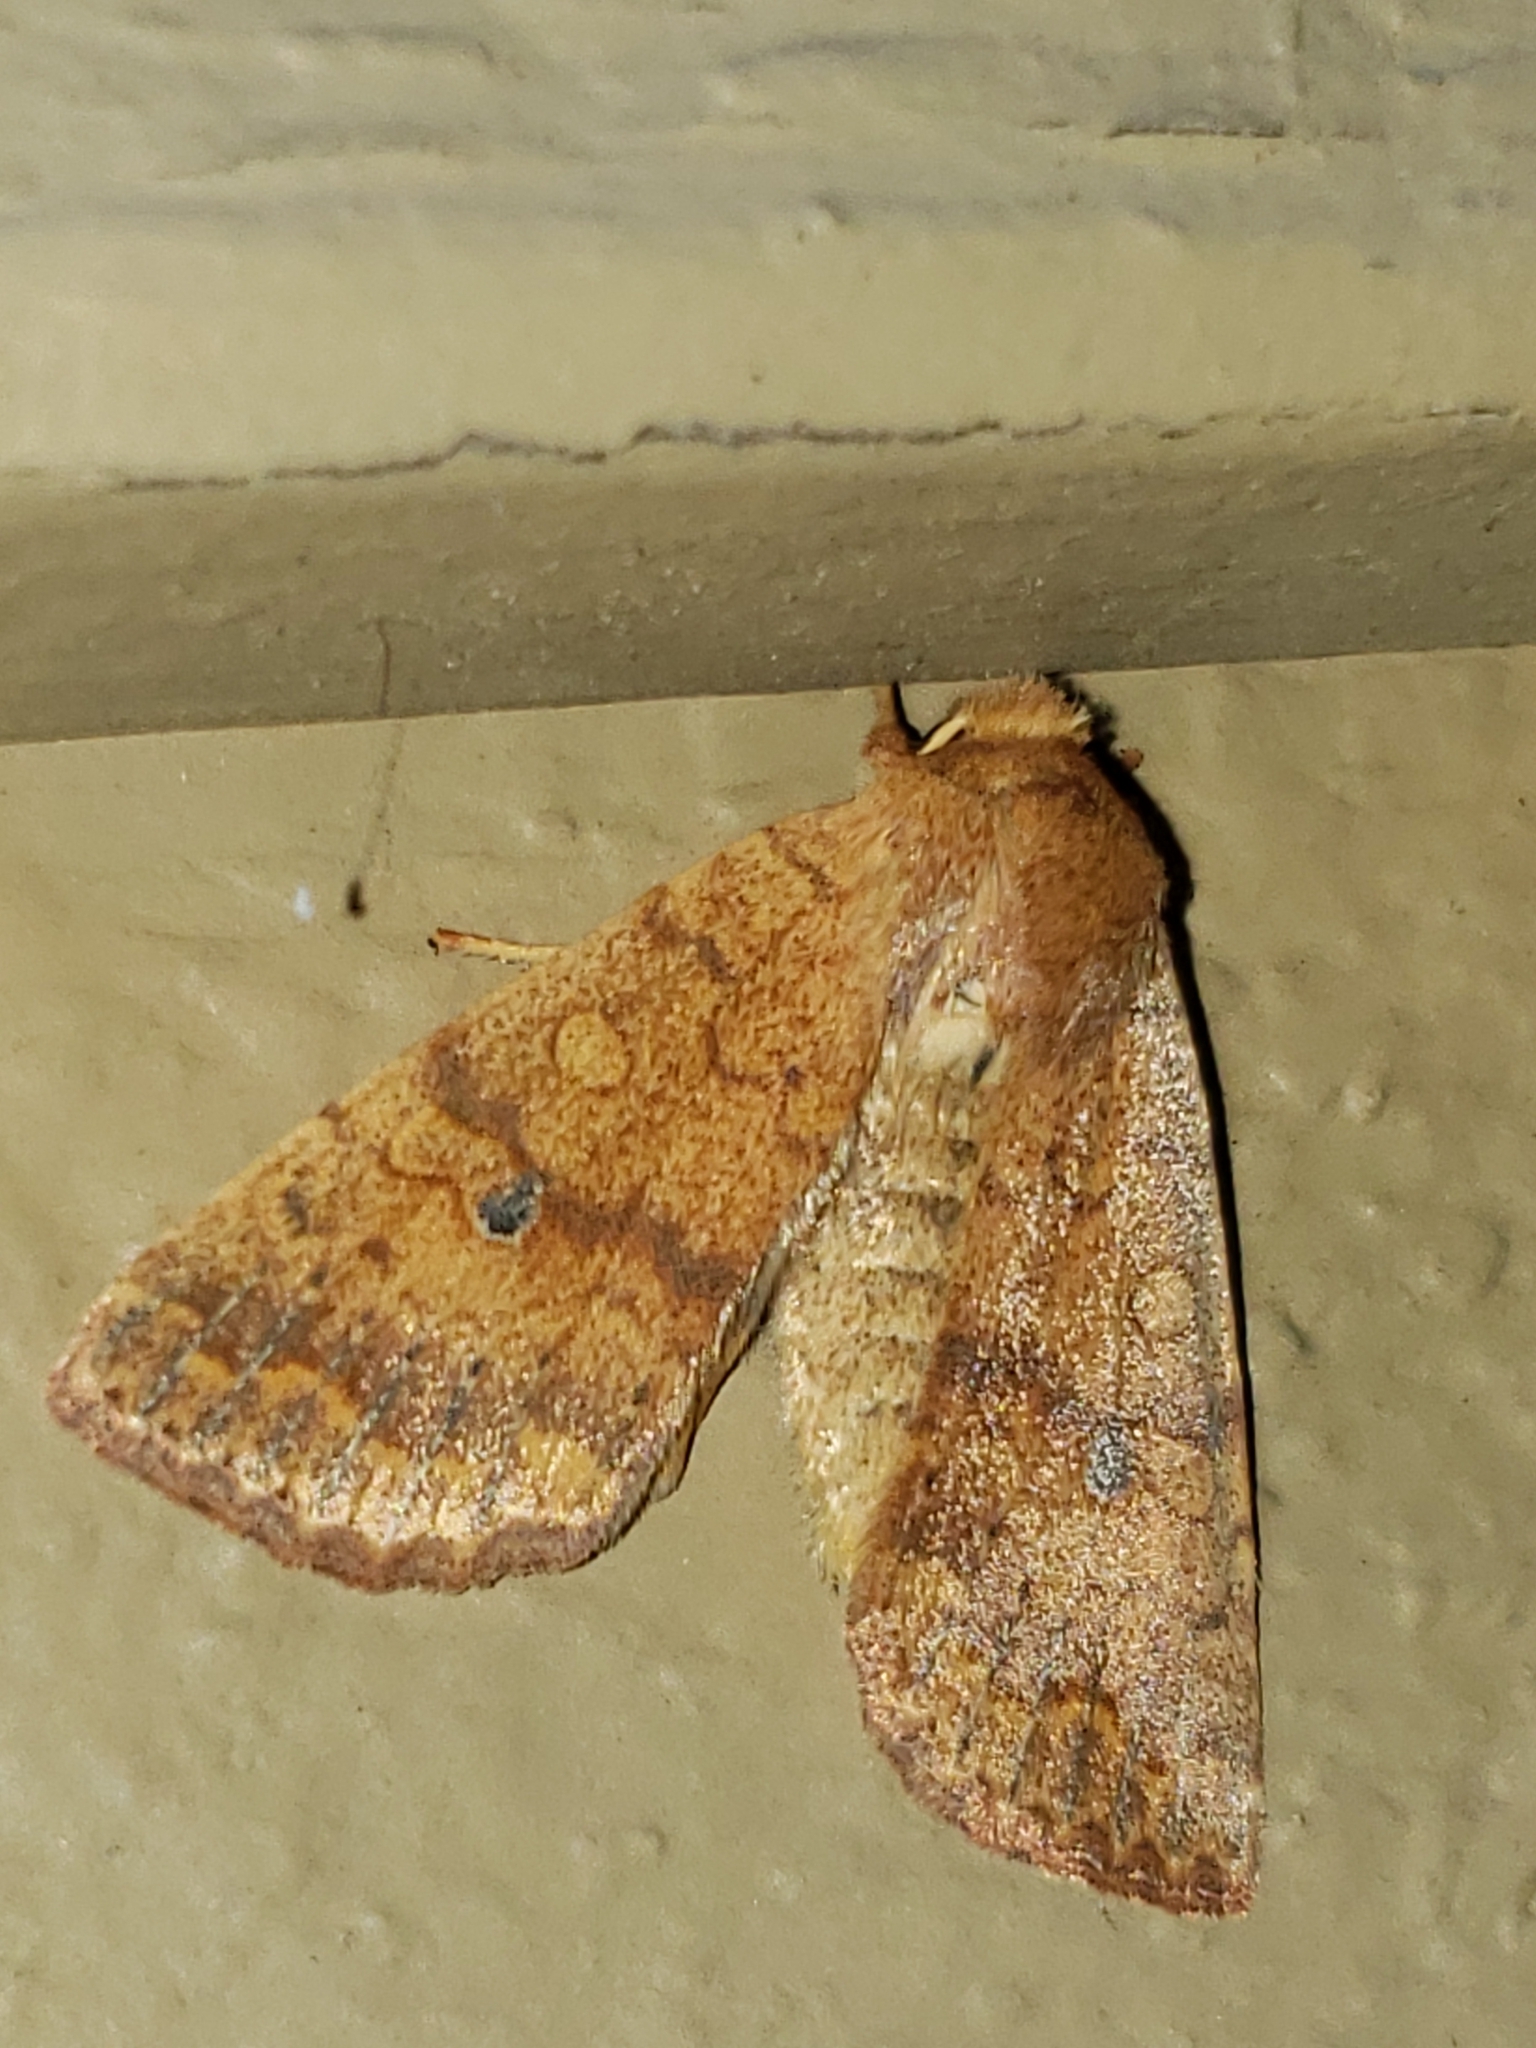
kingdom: Animalia
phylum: Arthropoda
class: Insecta
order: Lepidoptera
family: Noctuidae
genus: Agrochola
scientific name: Agrochola bicolorago
